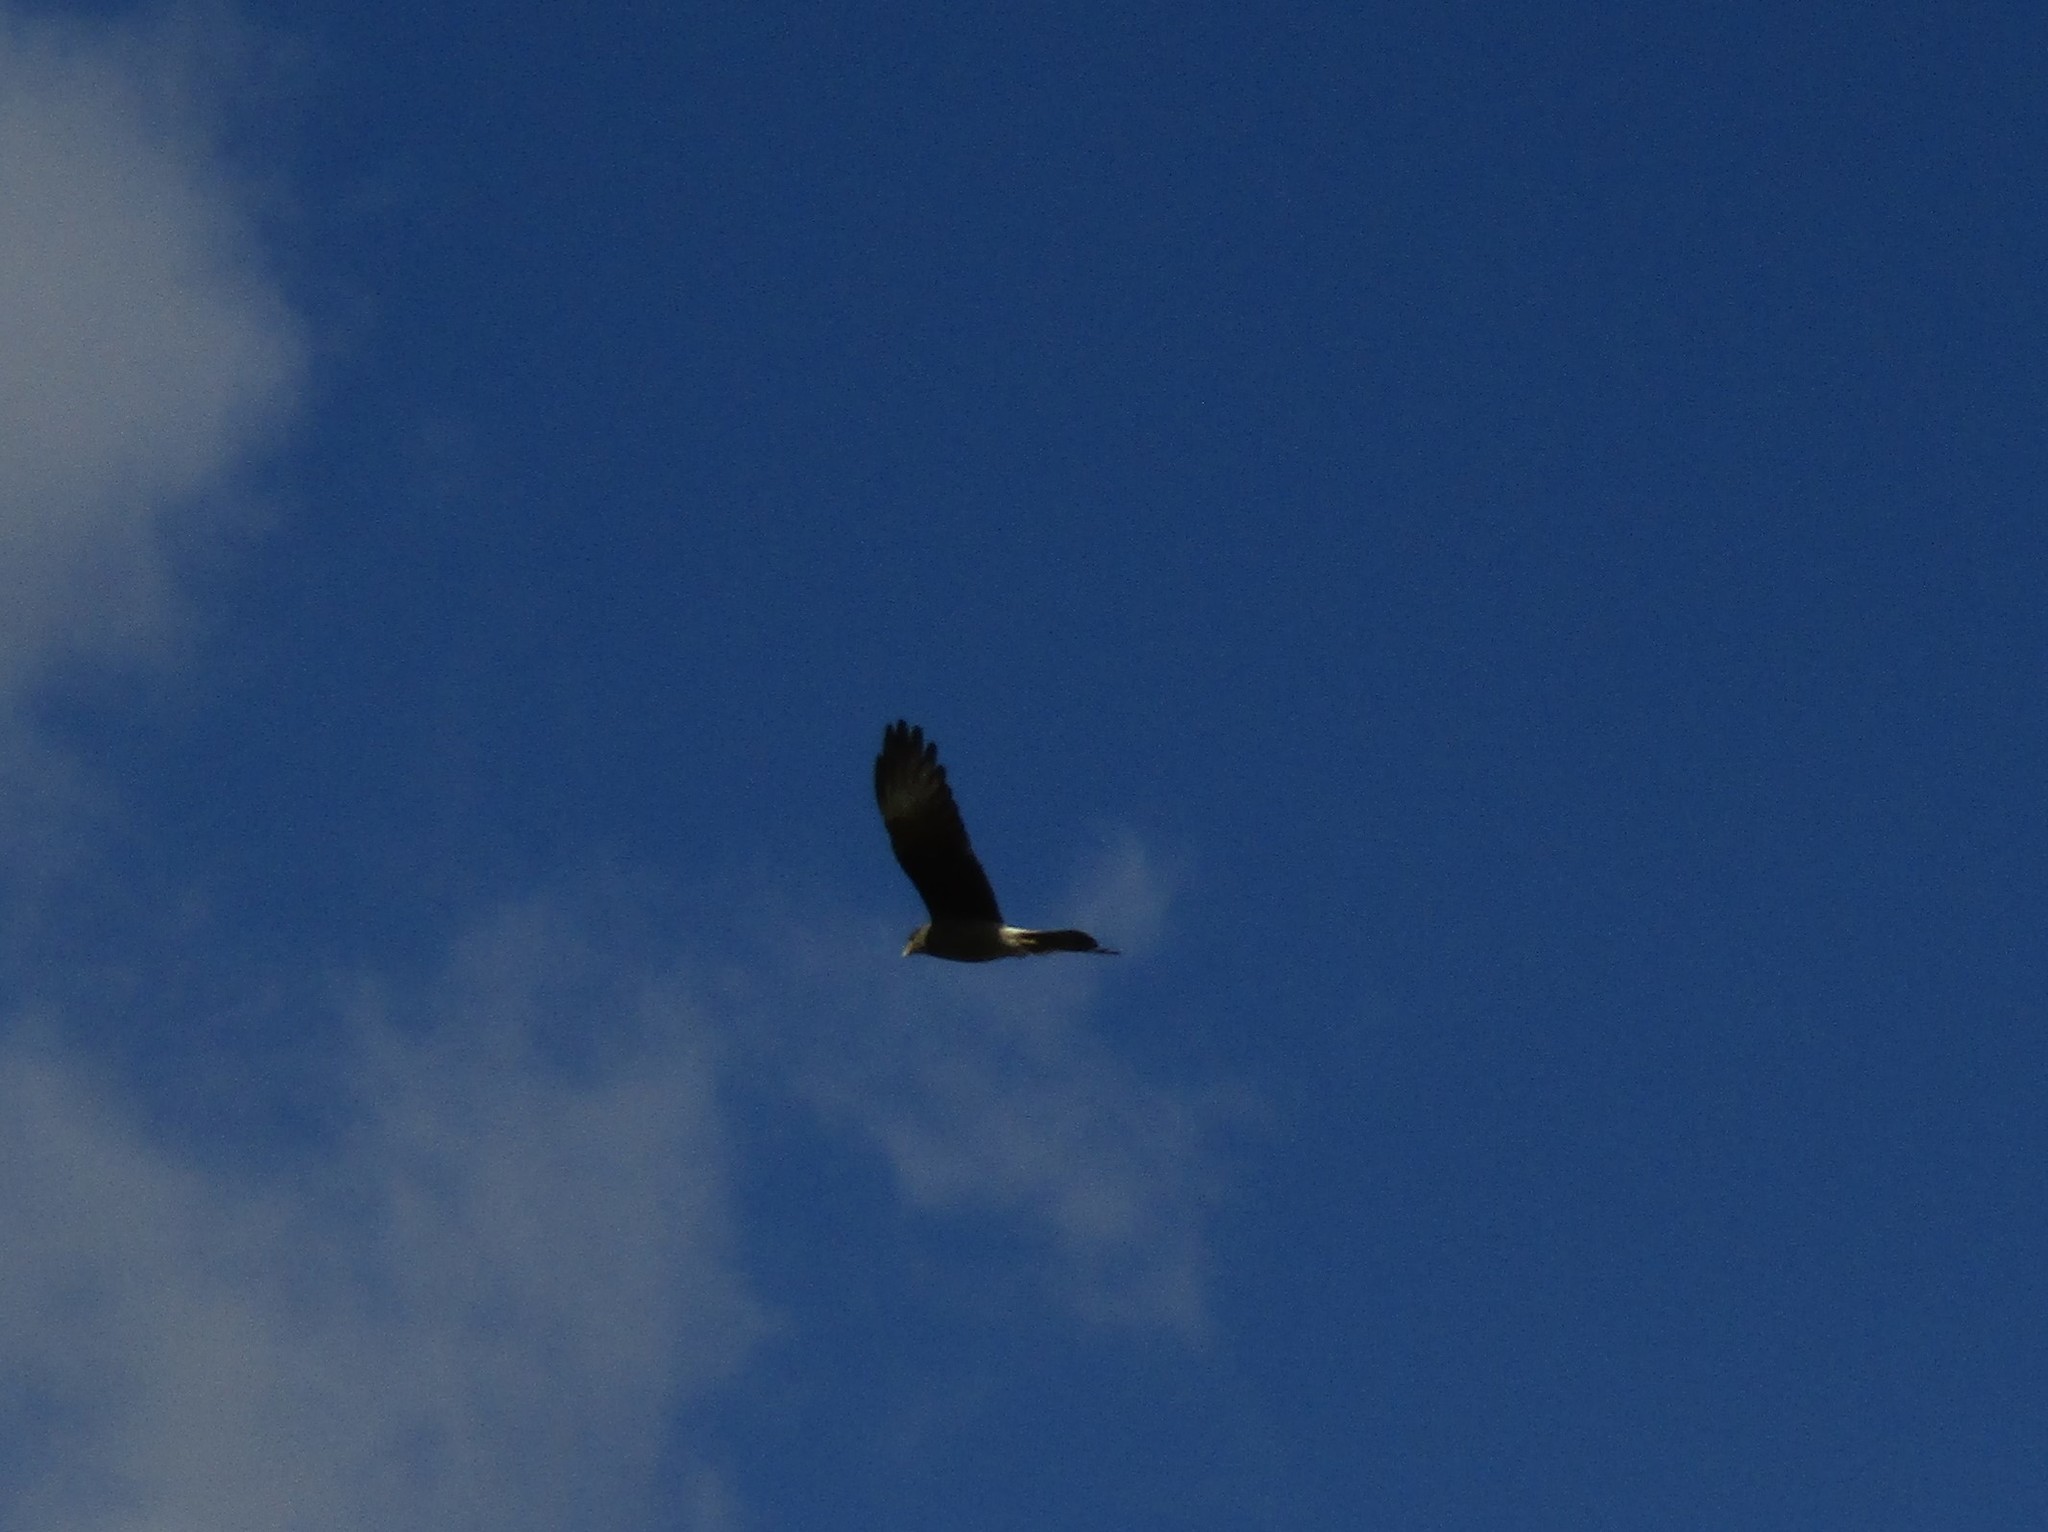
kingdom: Animalia
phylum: Chordata
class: Aves
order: Falconiformes
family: Falconidae
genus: Daptrius
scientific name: Daptrius
